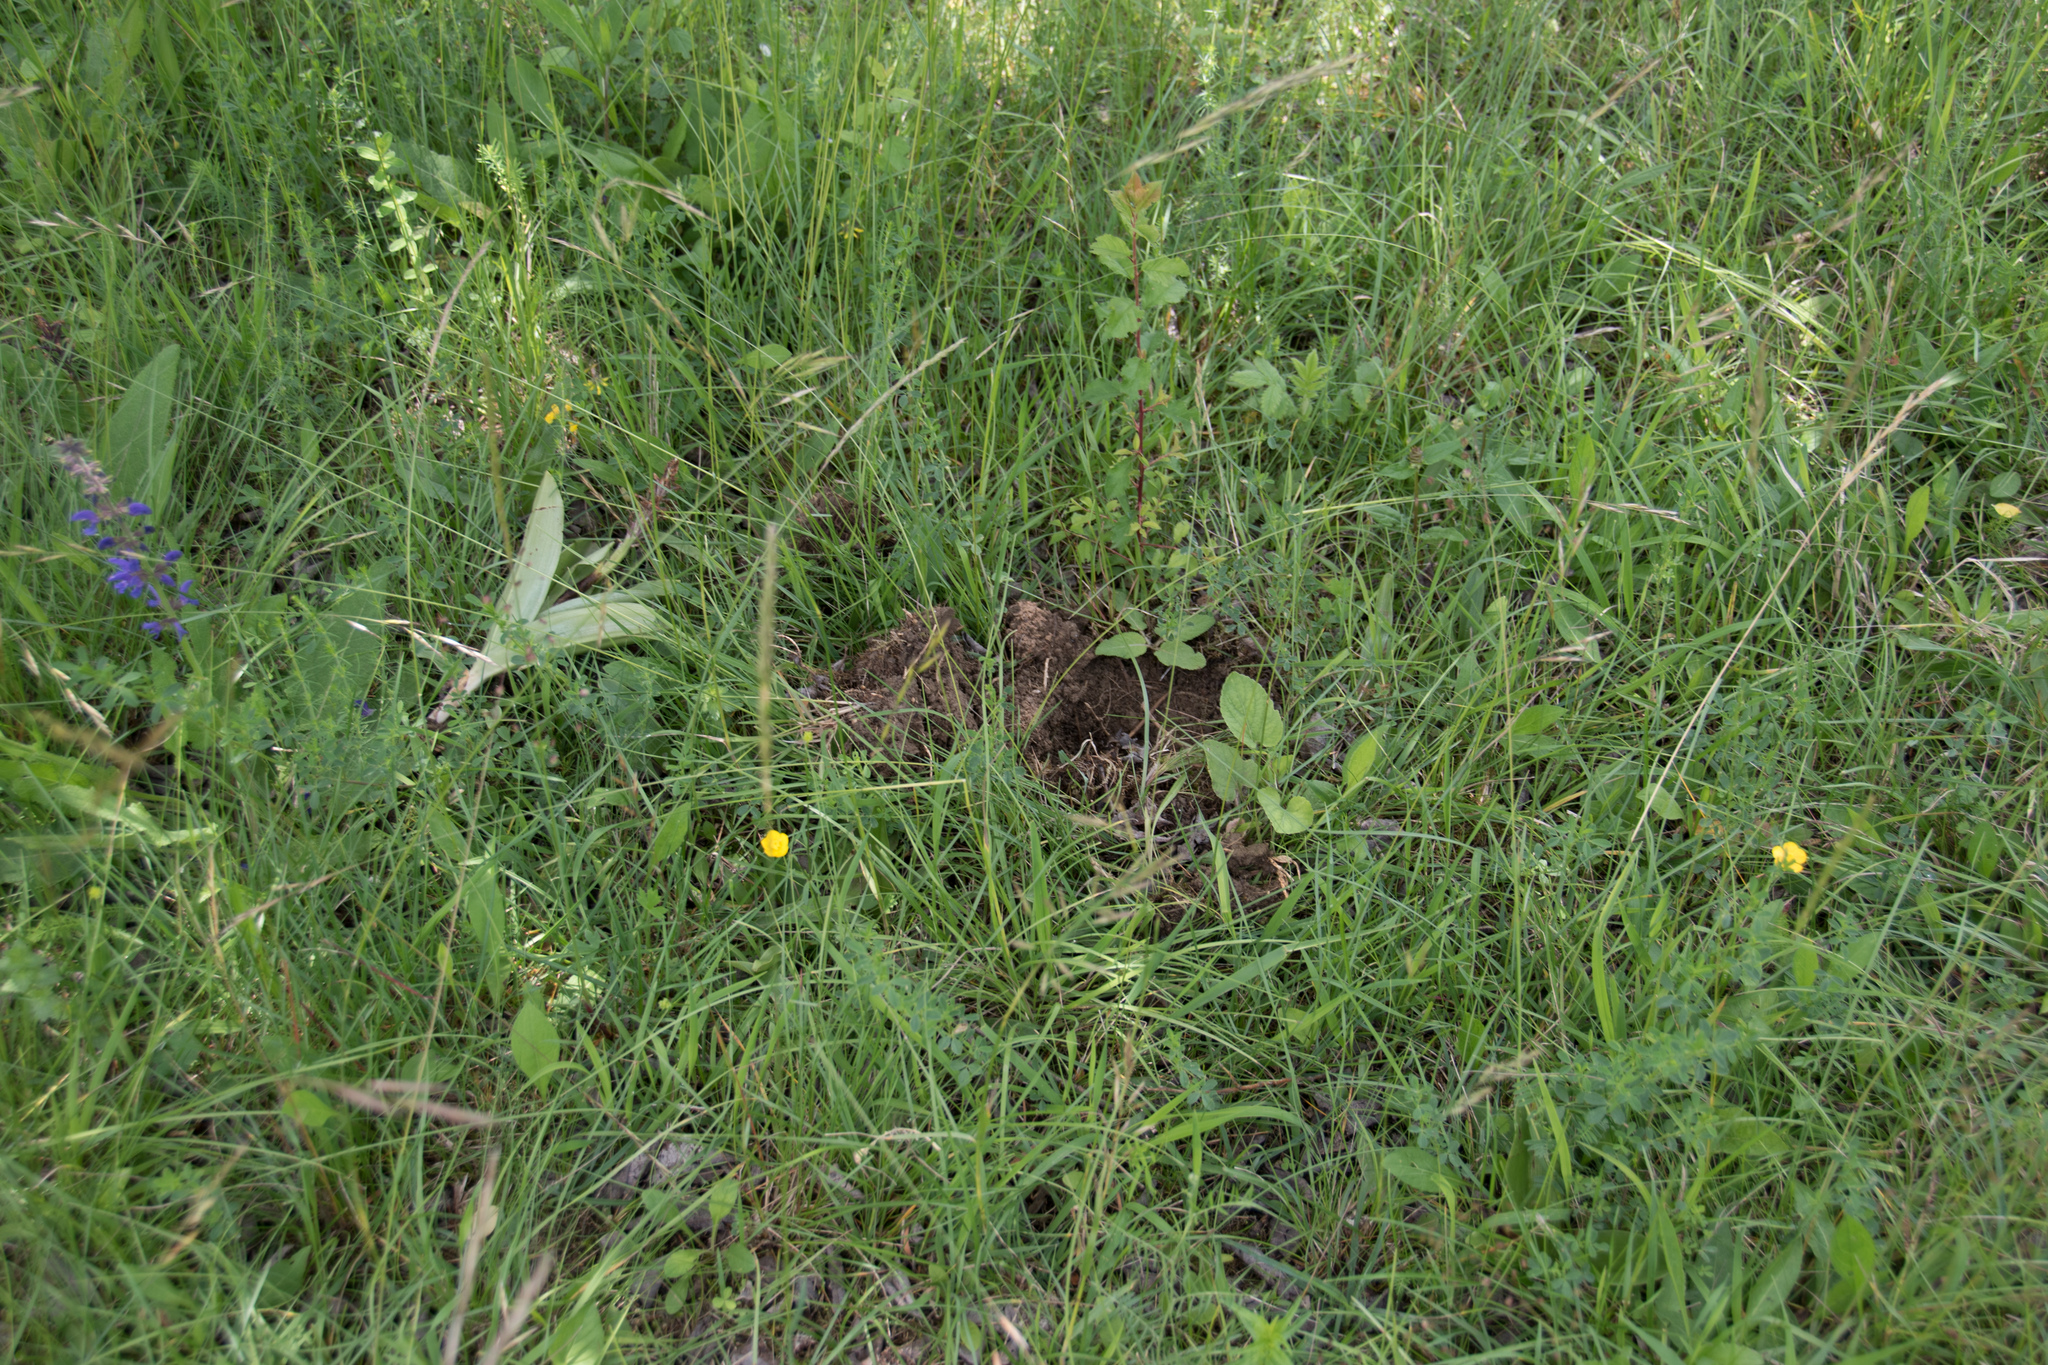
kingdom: Plantae
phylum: Tracheophyta
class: Liliopsida
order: Asparagales
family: Orchidaceae
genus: Orchis
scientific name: Orchis militaris
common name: Military orchid
